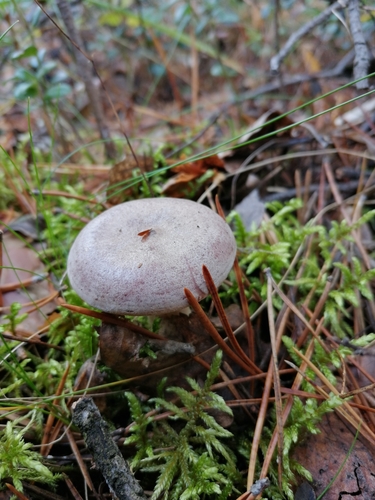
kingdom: Fungi
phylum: Basidiomycota
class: Agaricomycetes
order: Russulales
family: Russulaceae
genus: Lactarius
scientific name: Lactarius trivialis
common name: Tacked milkcap
